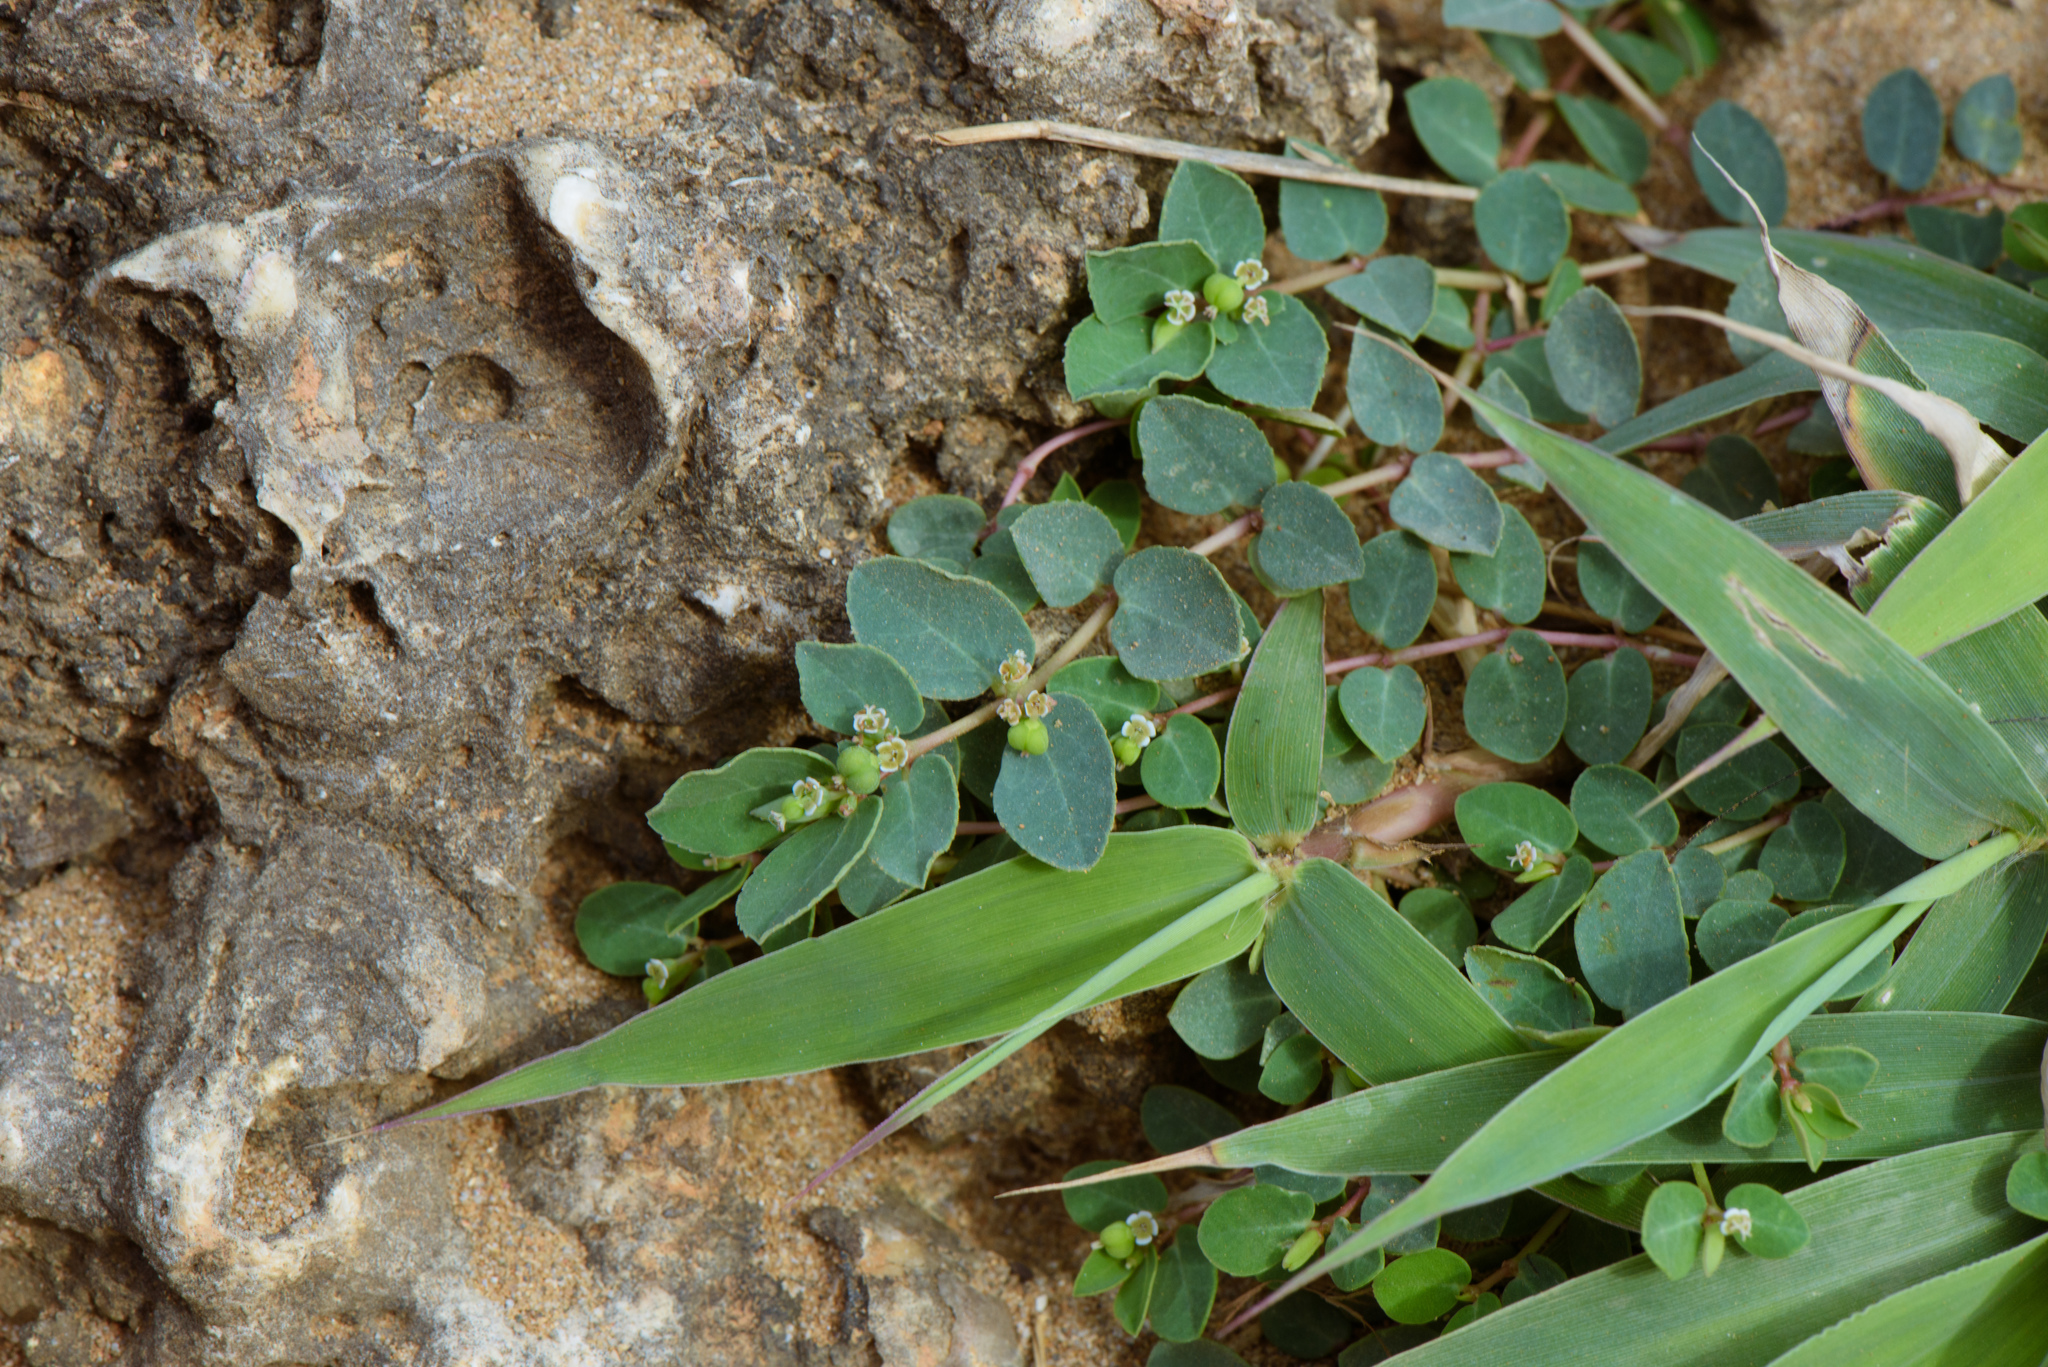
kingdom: Plantae
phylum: Tracheophyta
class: Magnoliopsida
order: Malpighiales
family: Euphorbiaceae
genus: Euphorbia
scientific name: Euphorbia garanbiensis
